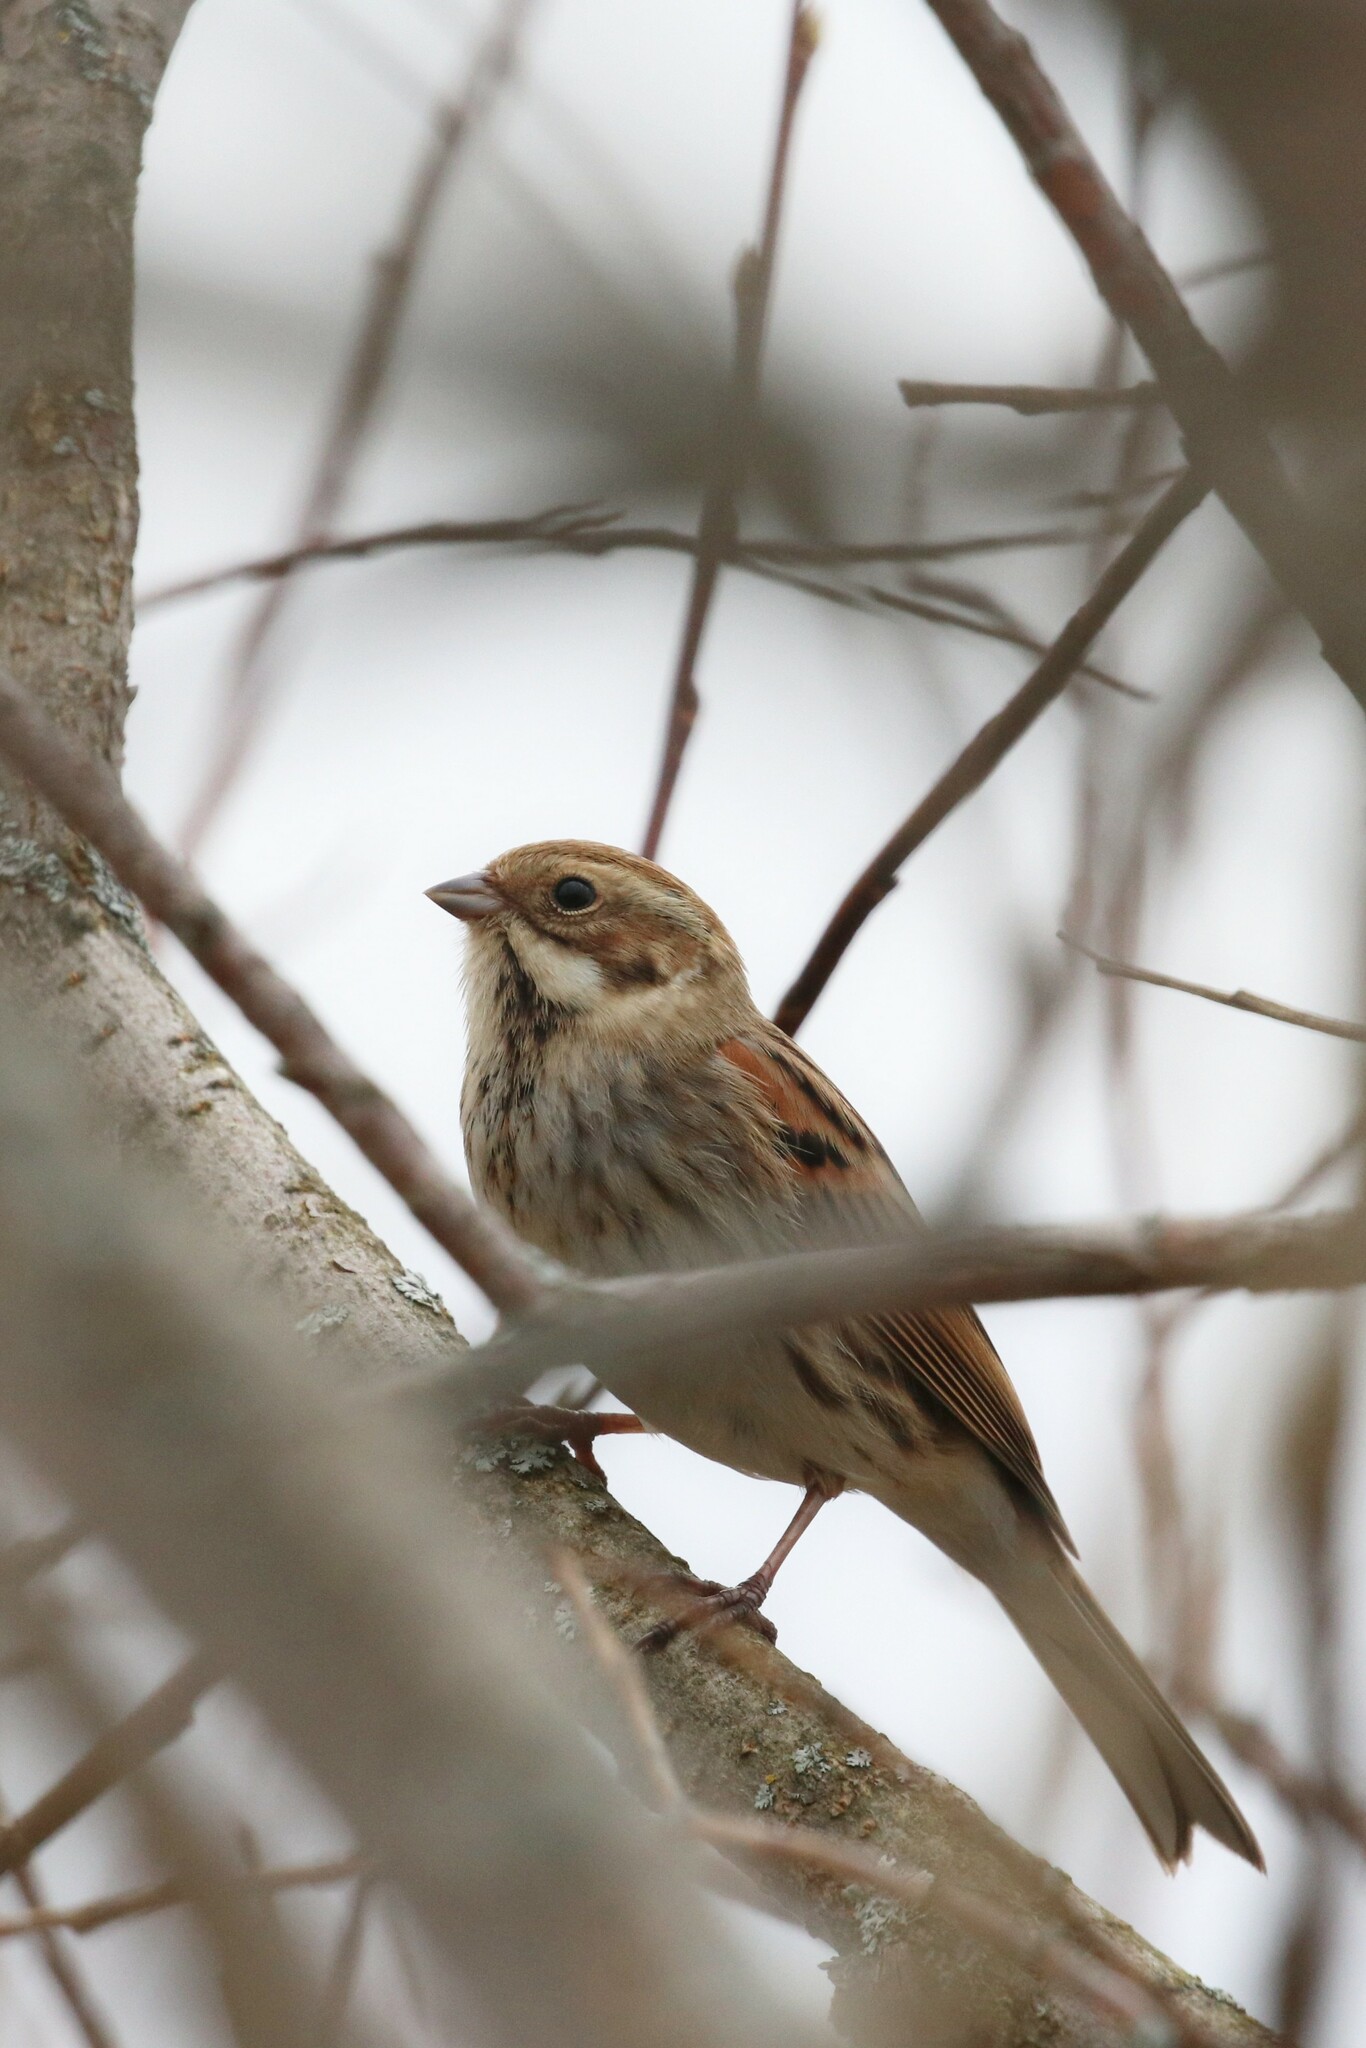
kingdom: Animalia
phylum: Chordata
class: Aves
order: Passeriformes
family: Emberizidae
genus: Emberiza
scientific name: Emberiza schoeniclus
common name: Reed bunting
